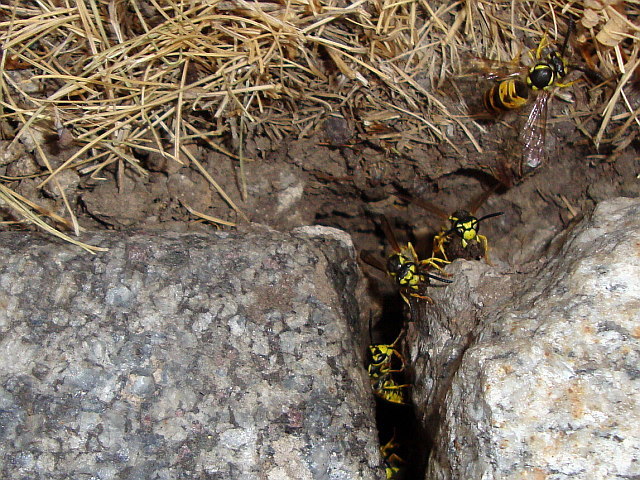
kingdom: Animalia
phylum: Arthropoda
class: Insecta
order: Hymenoptera
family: Vespidae
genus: Vespula
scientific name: Vespula germanica
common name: German wasp
